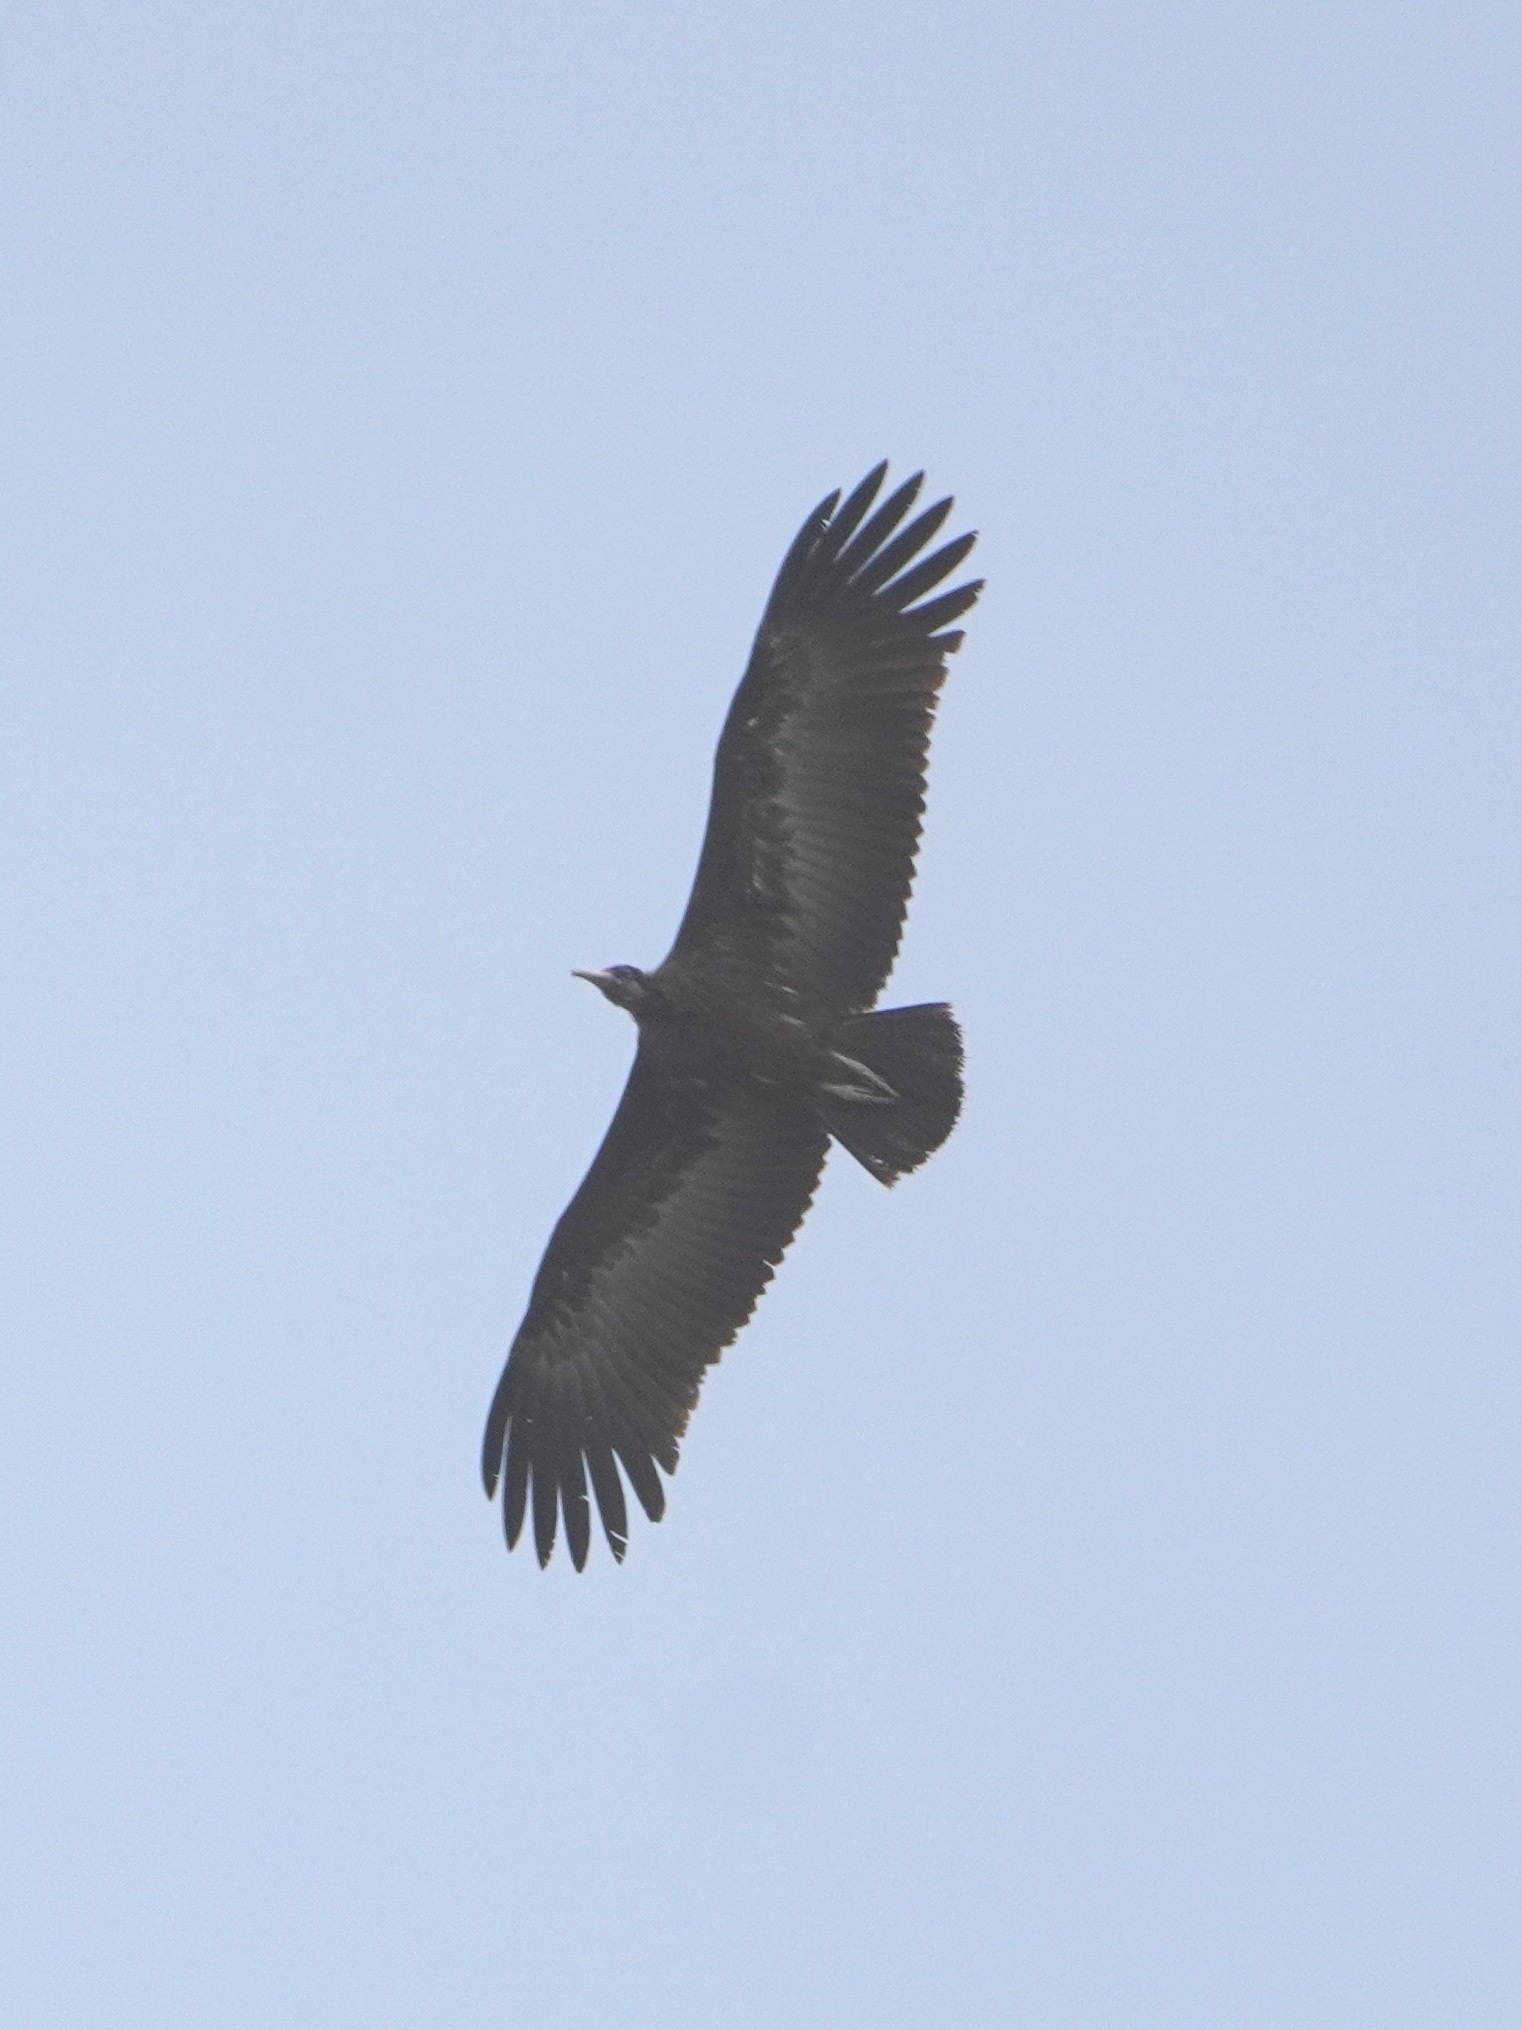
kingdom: Animalia
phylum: Chordata
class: Aves
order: Accipitriformes
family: Accipitridae
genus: Necrosyrtes
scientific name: Necrosyrtes monachus
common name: Hooded vulture
